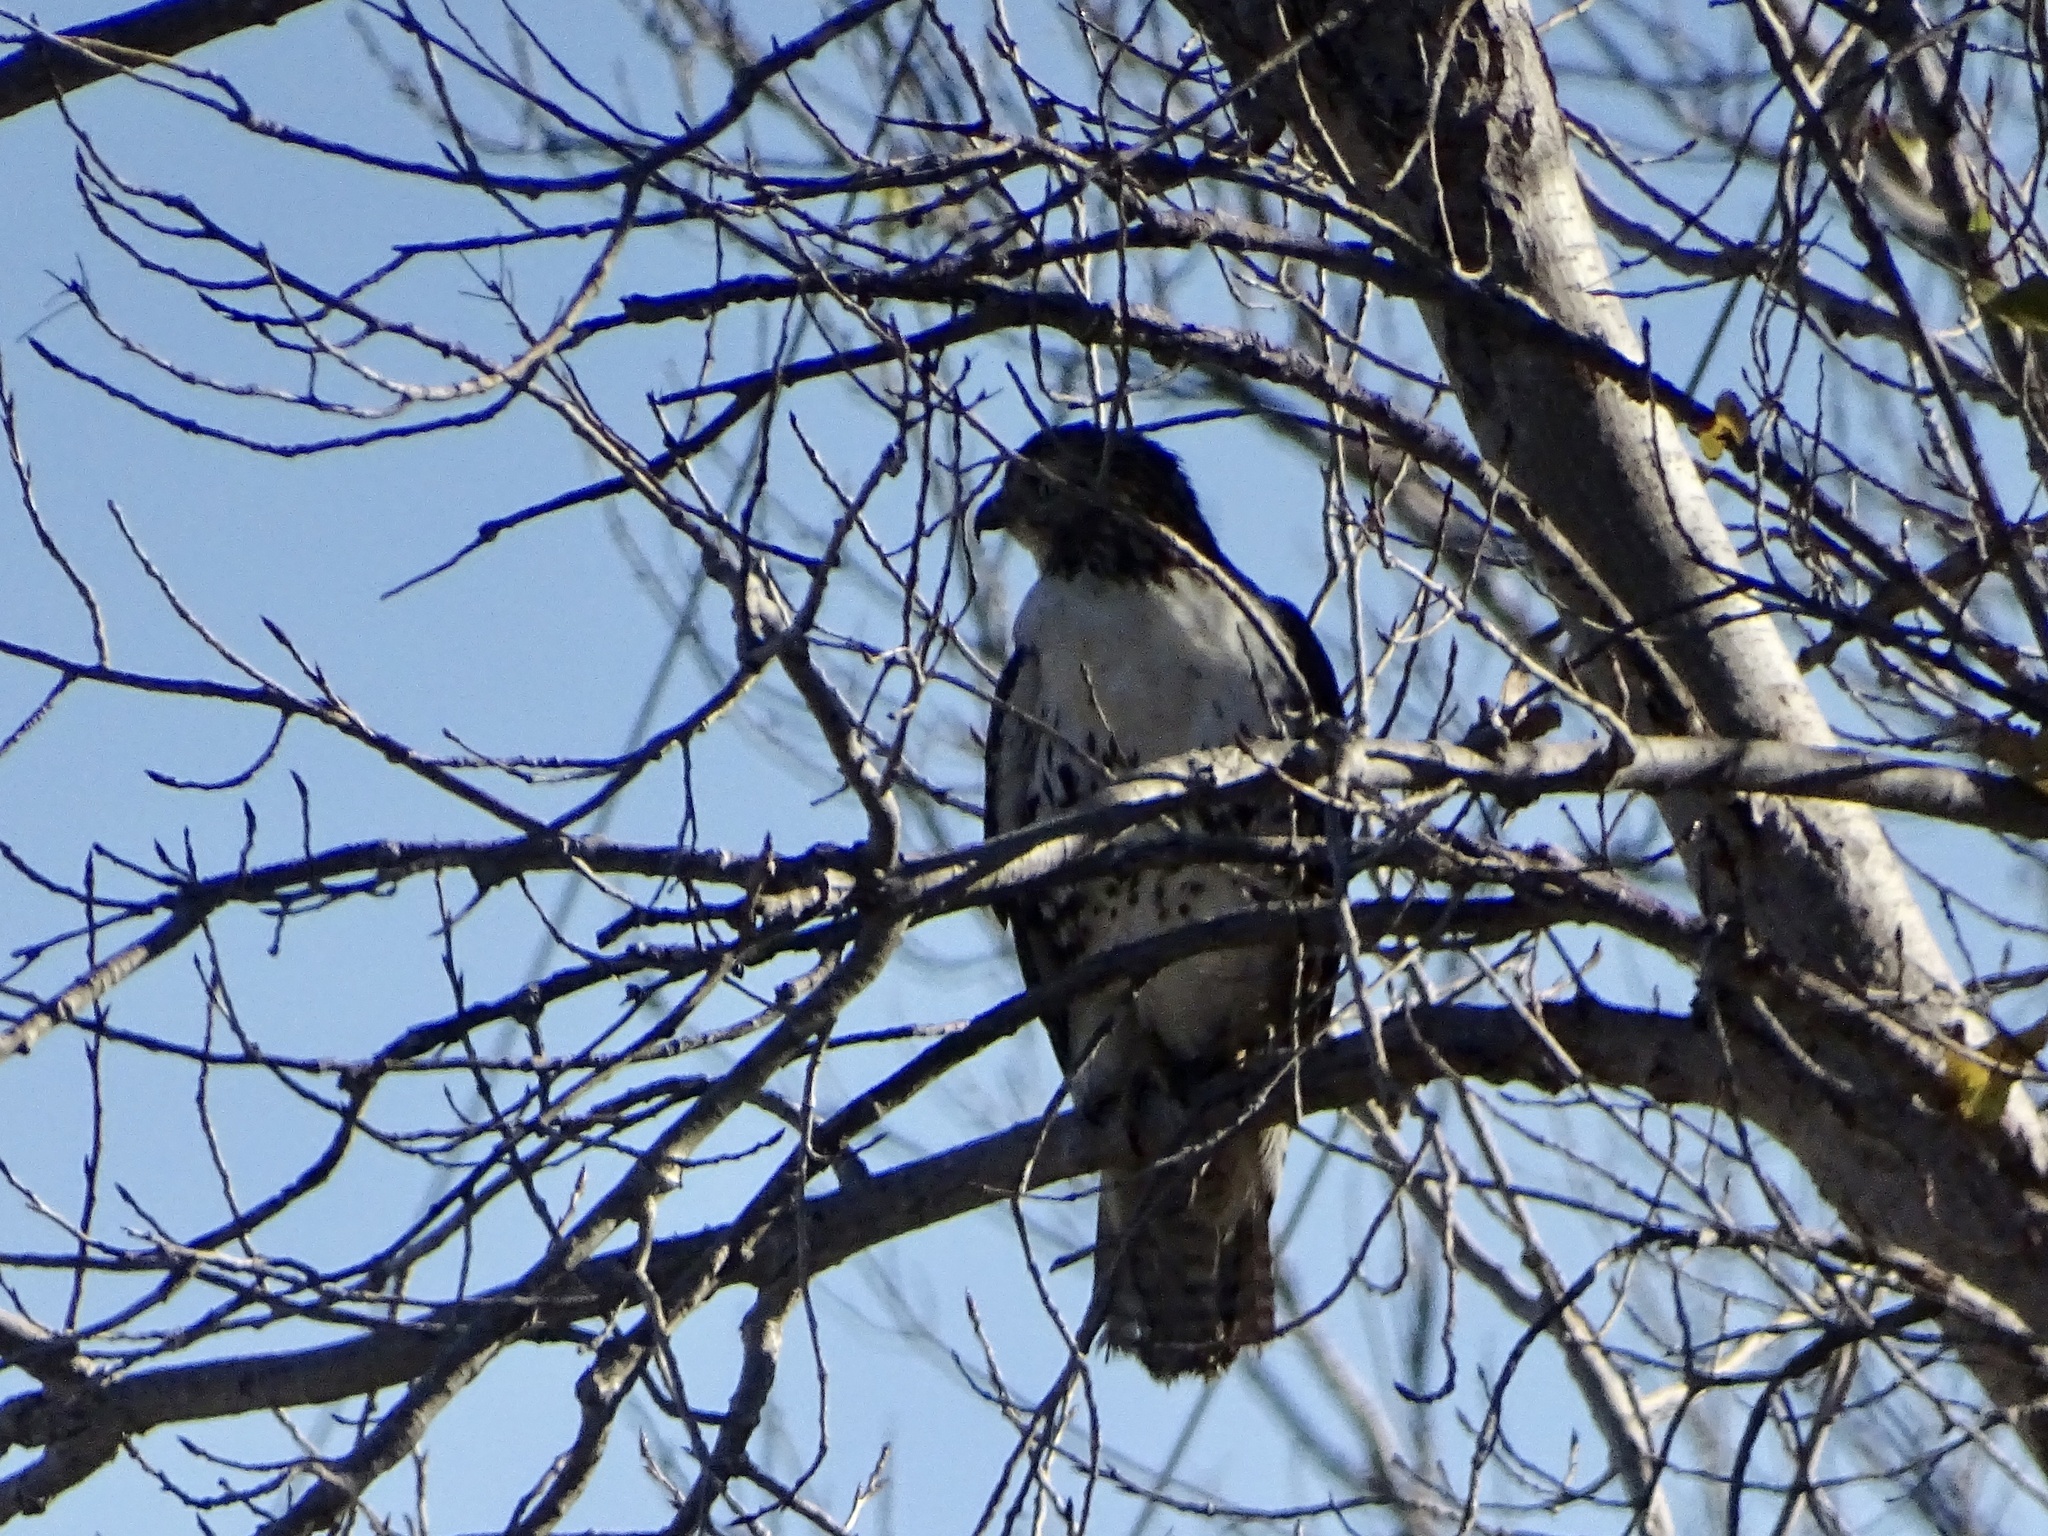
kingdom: Animalia
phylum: Chordata
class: Aves
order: Accipitriformes
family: Accipitridae
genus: Buteo
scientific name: Buteo jamaicensis
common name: Red-tailed hawk
